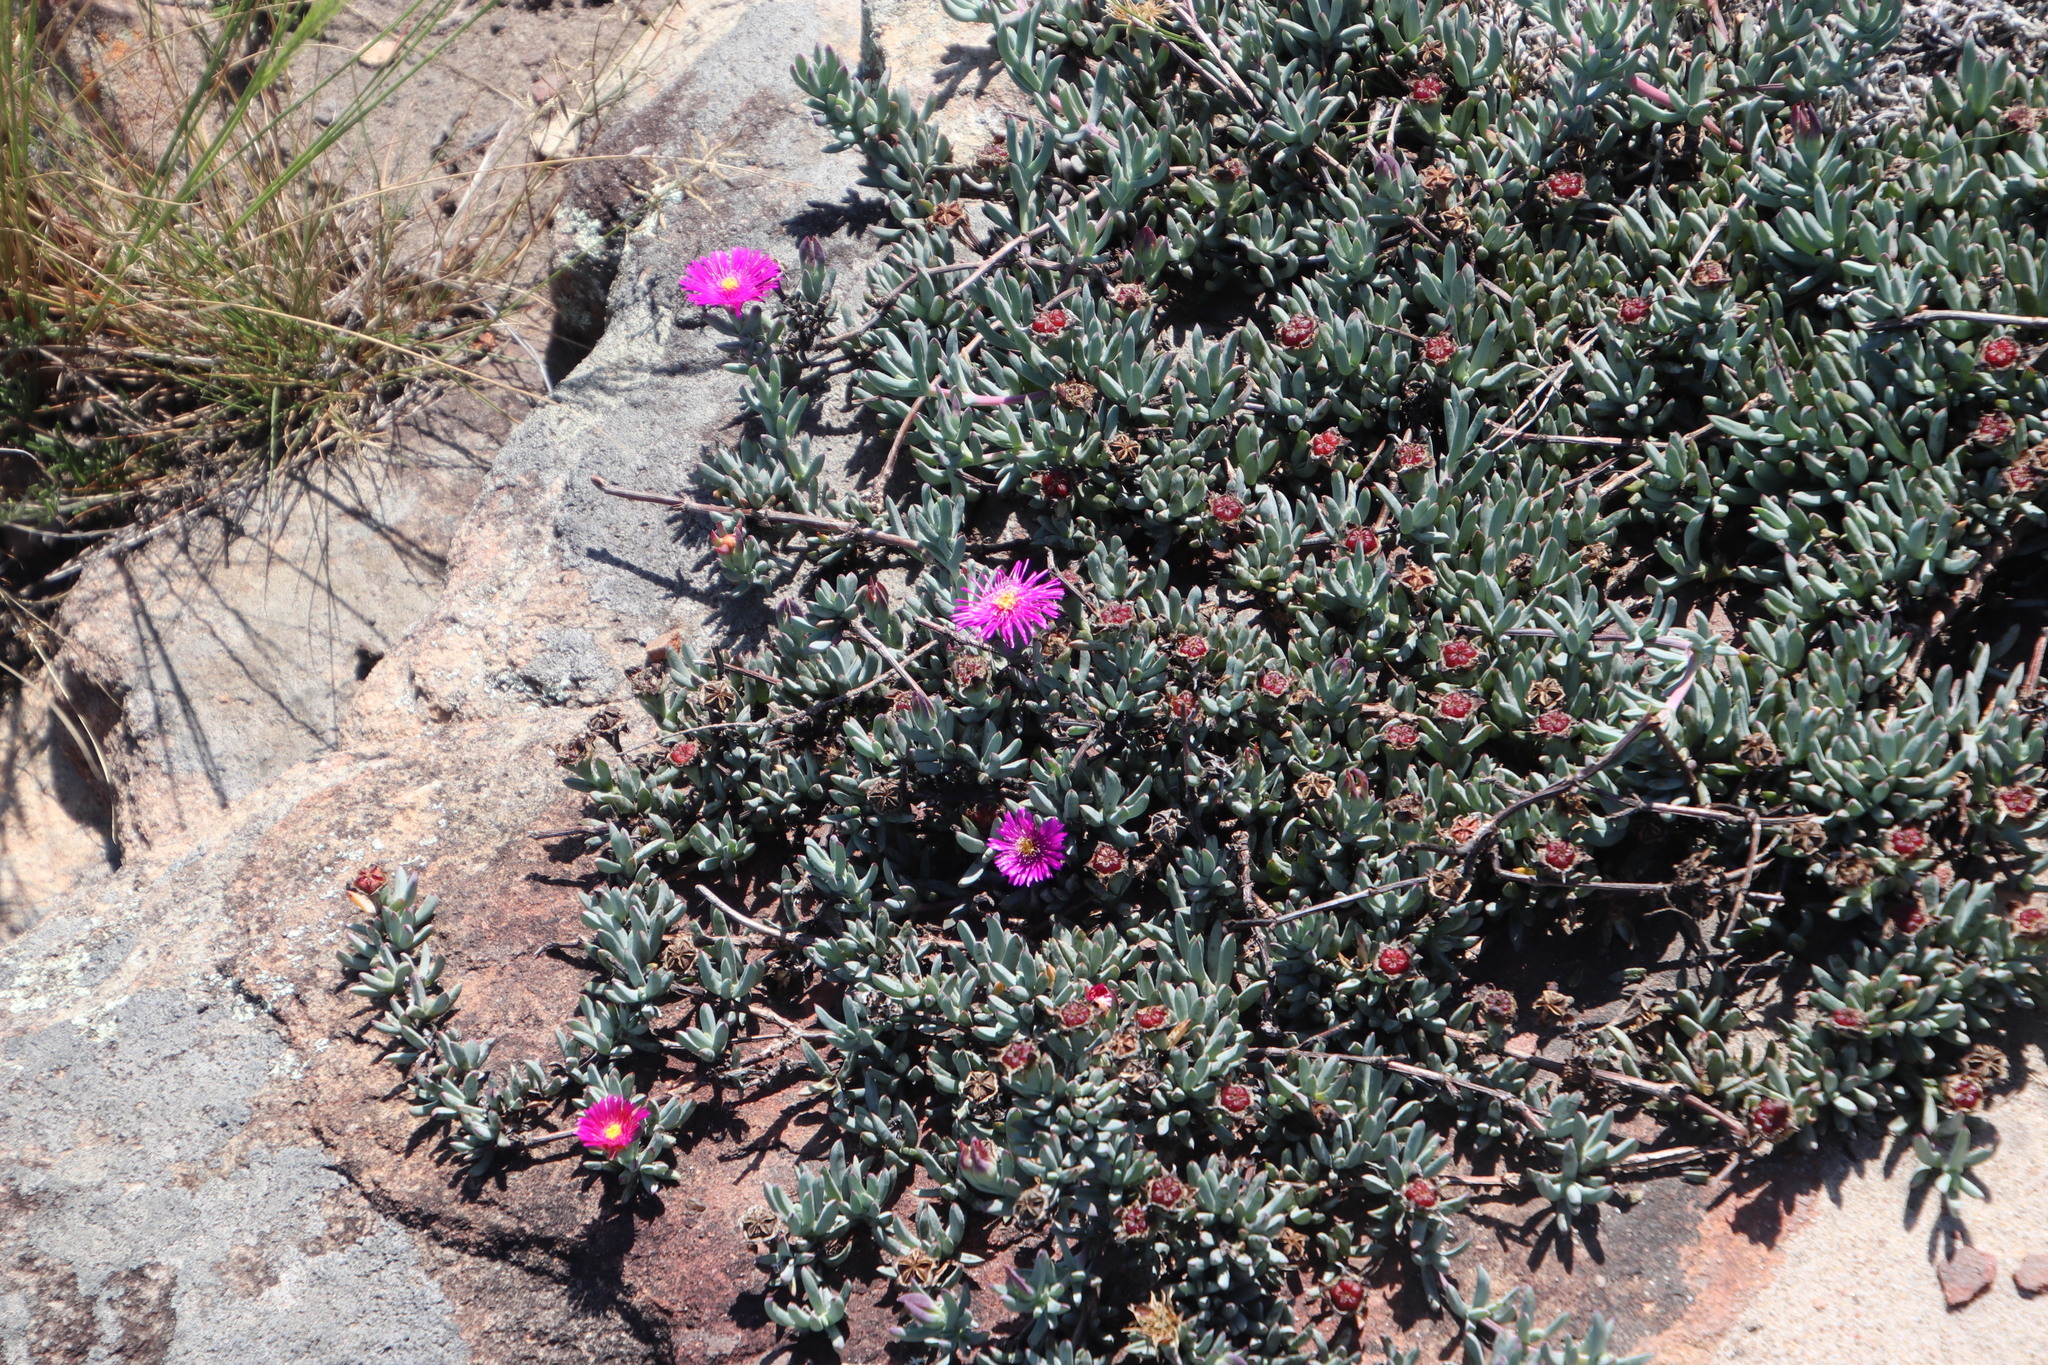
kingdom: Plantae
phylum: Tracheophyta
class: Magnoliopsida
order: Caryophyllales
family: Aizoaceae
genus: Lampranthus
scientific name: Lampranthus fugitans
